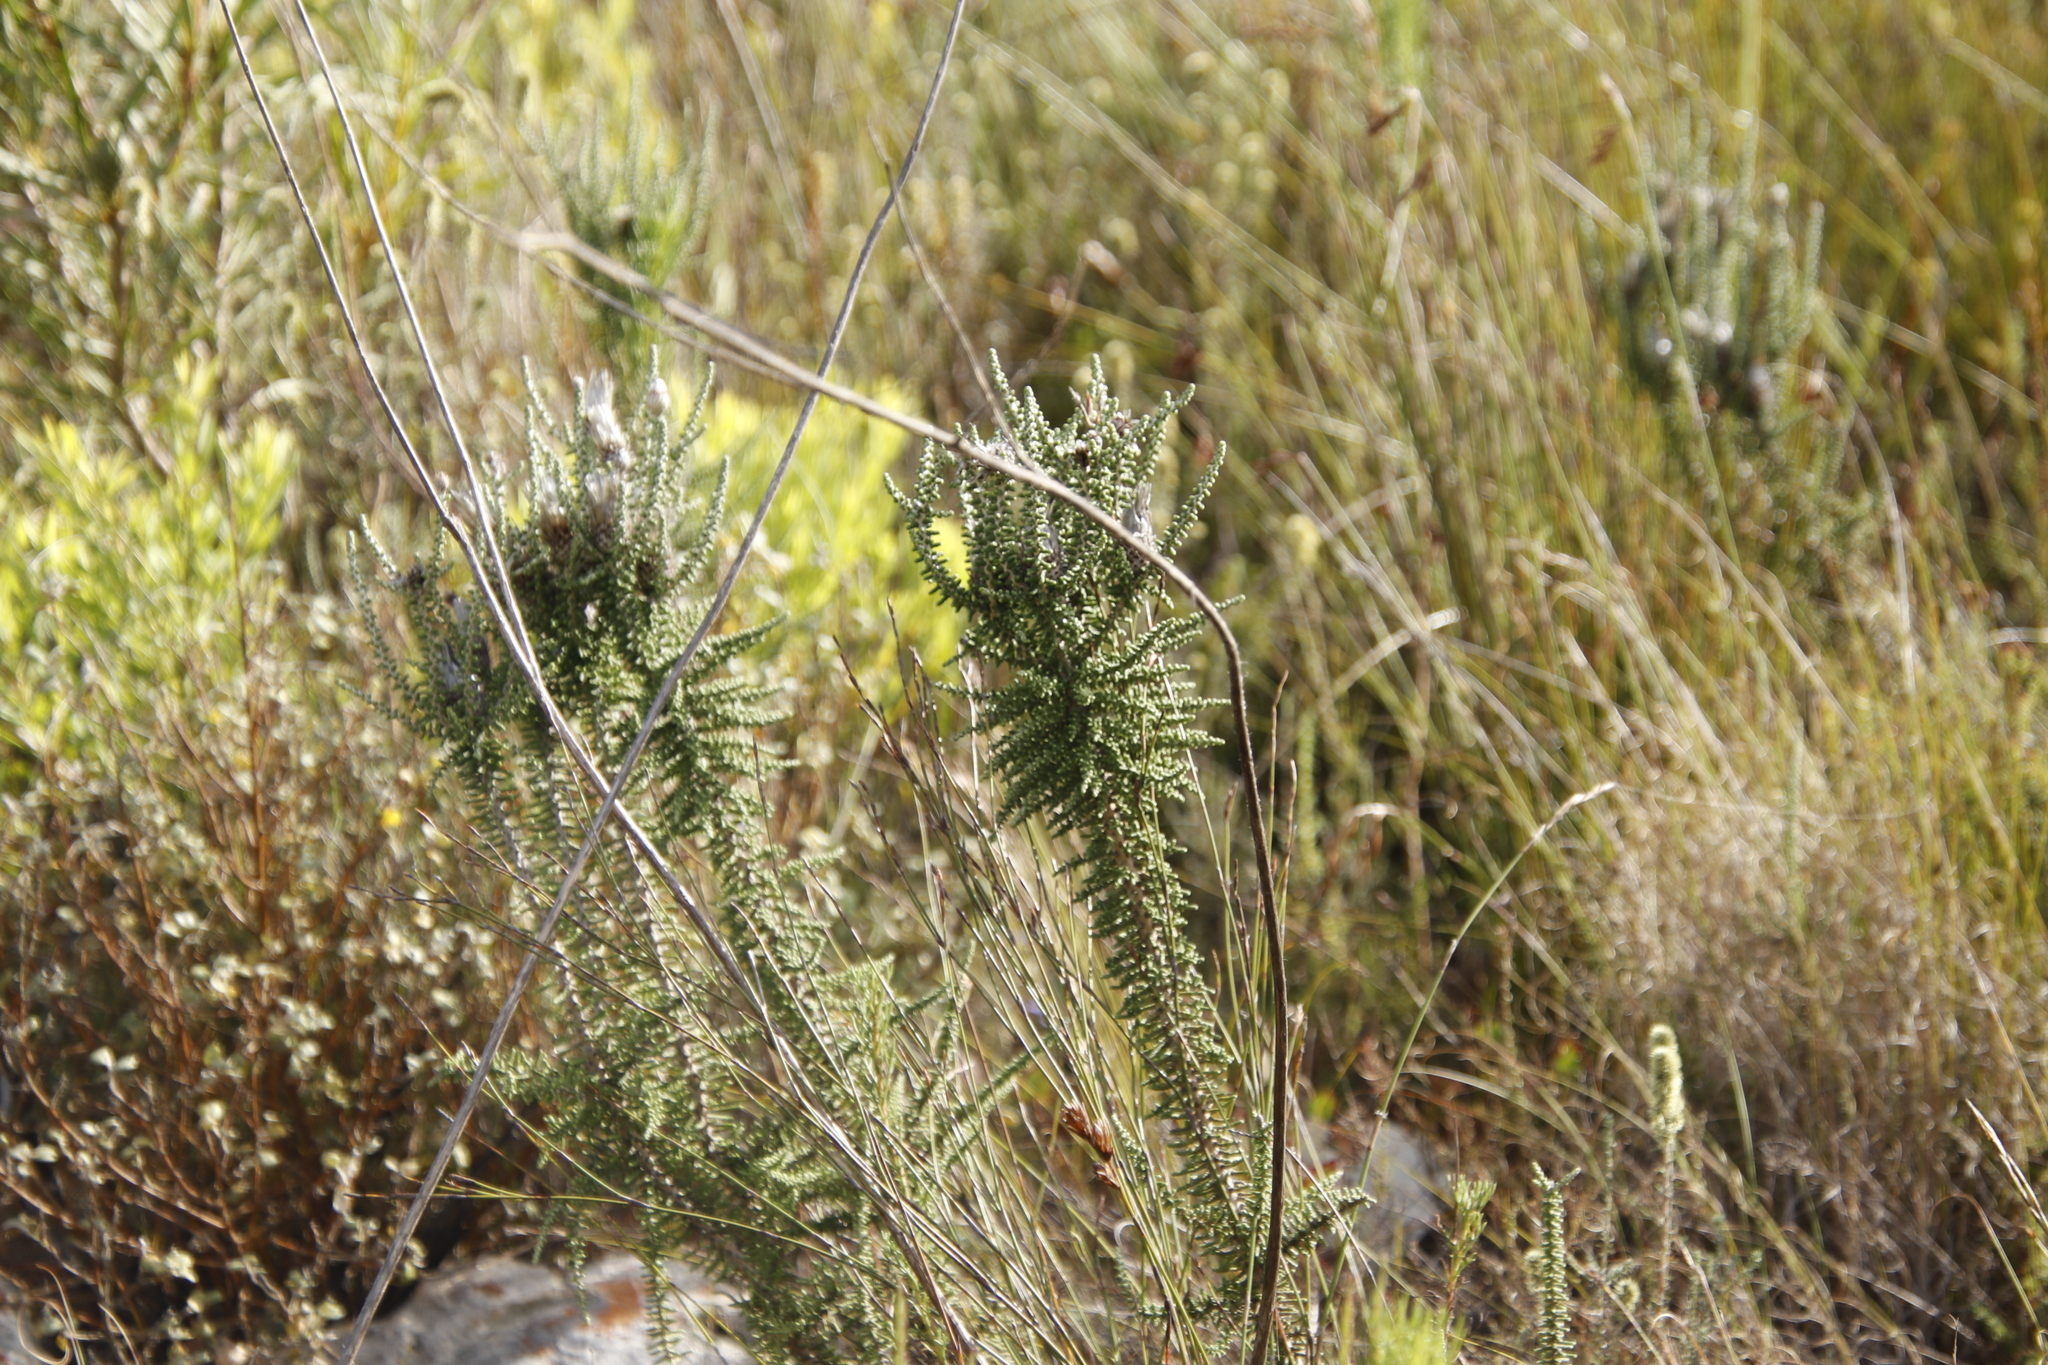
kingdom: Plantae
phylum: Tracheophyta
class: Magnoliopsida
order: Asterales
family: Asteraceae
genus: Phaenocoma
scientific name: Phaenocoma prolifera
